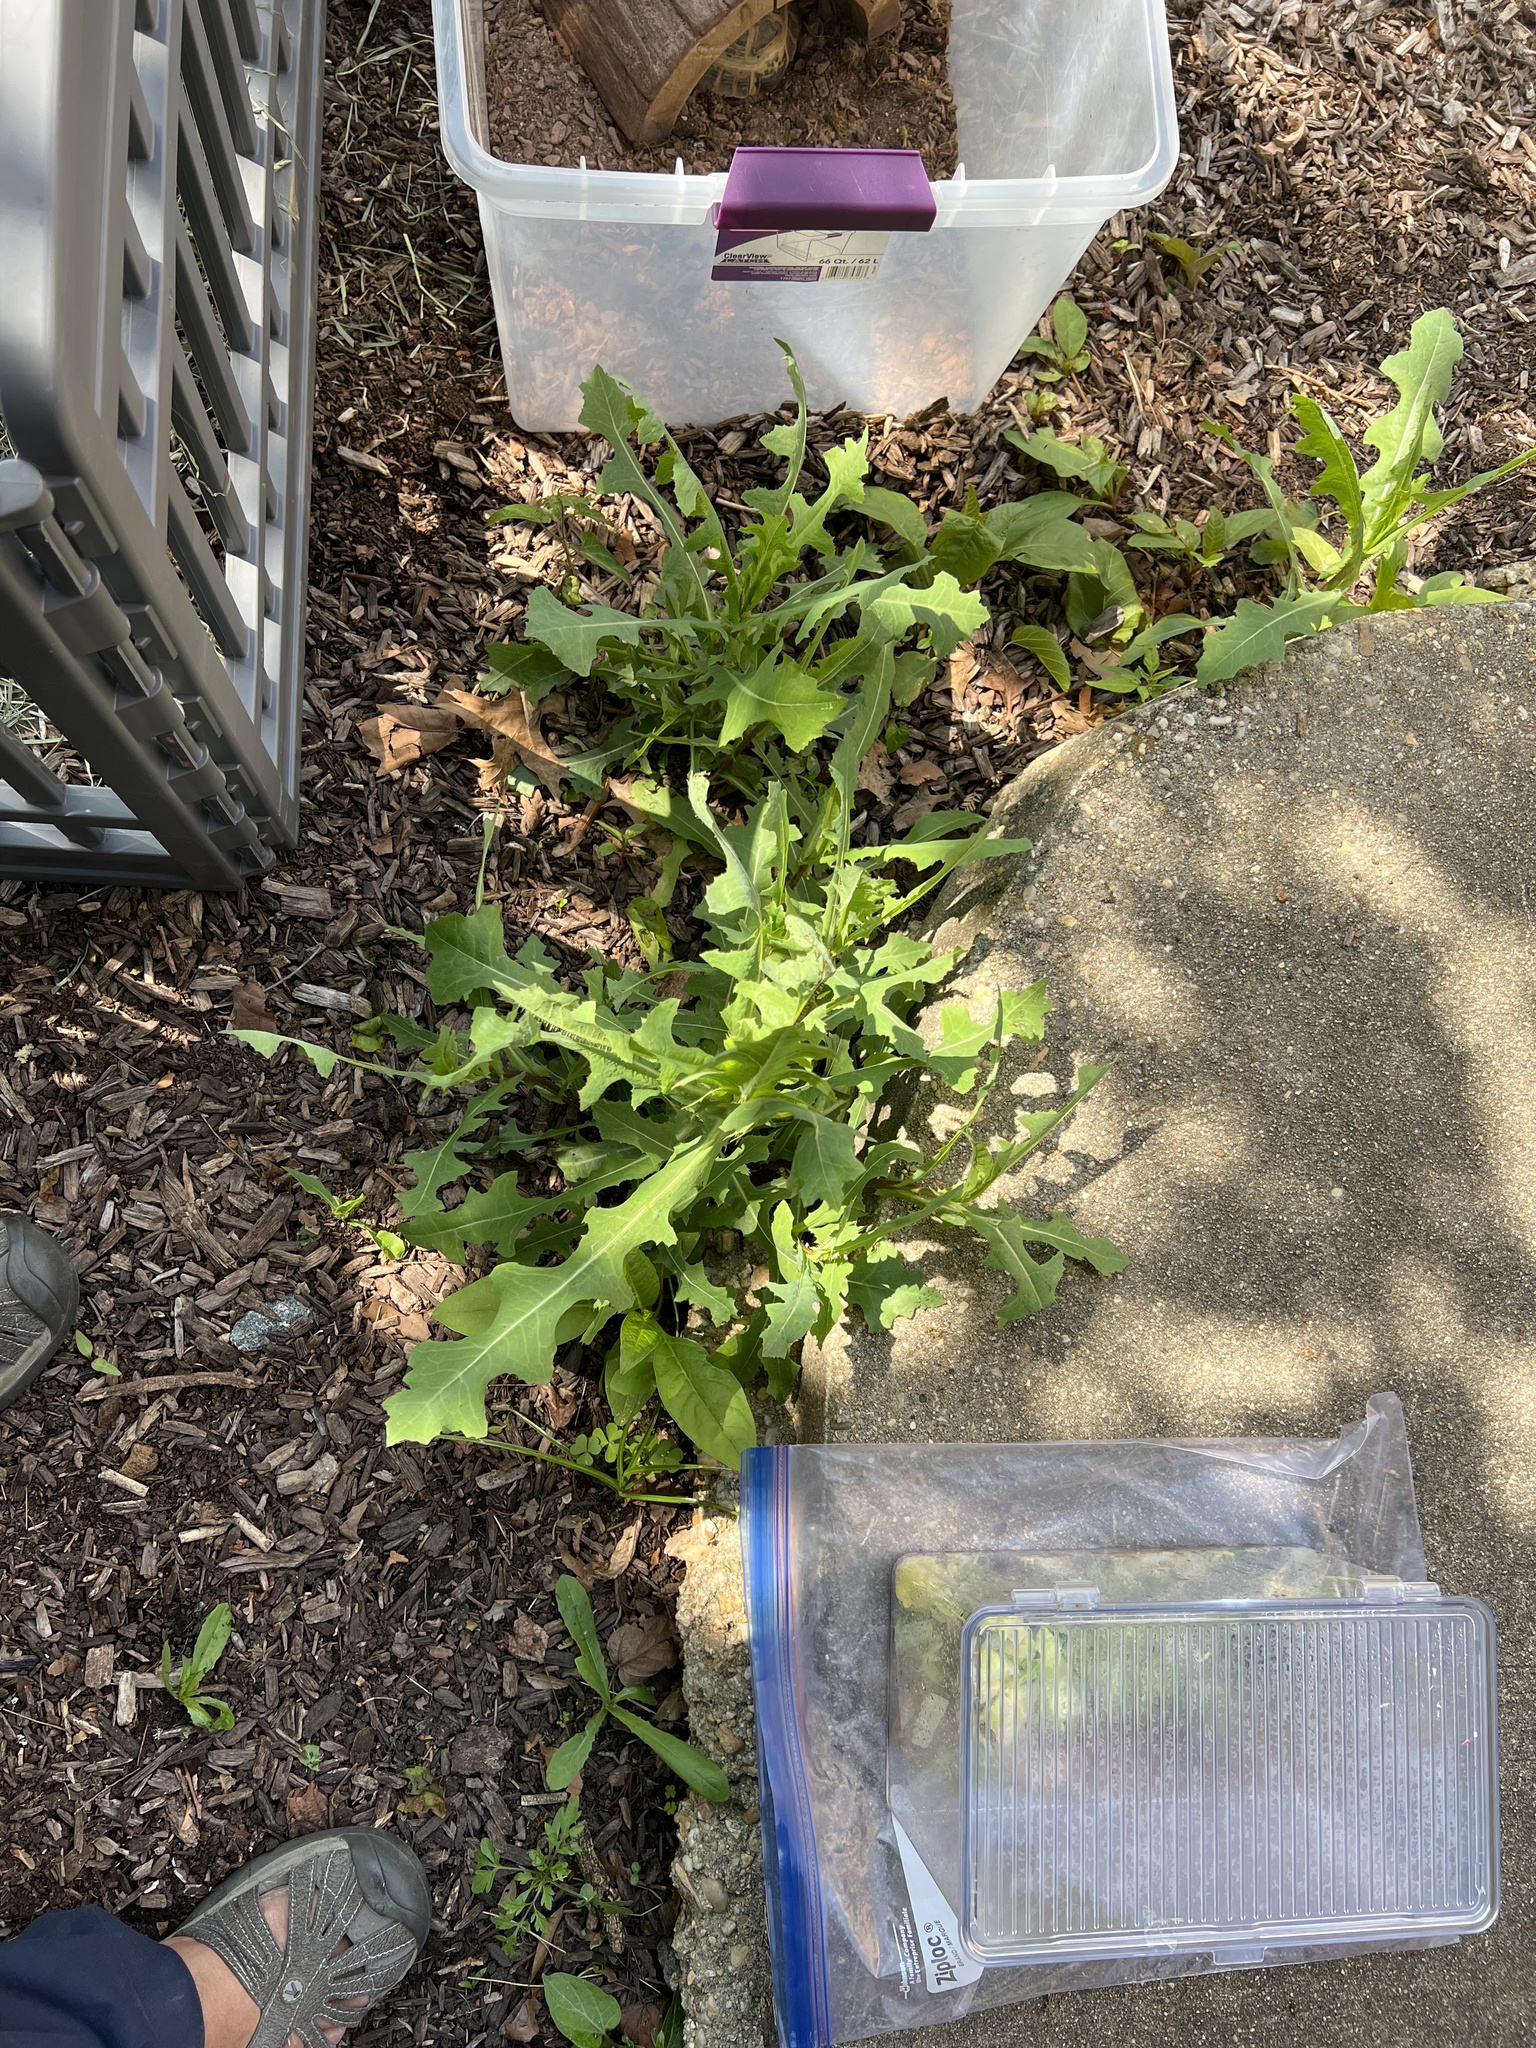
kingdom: Plantae
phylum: Tracheophyta
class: Magnoliopsida
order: Asterales
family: Asteraceae
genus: Lactuca
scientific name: Lactuca serriola
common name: Prickly lettuce
